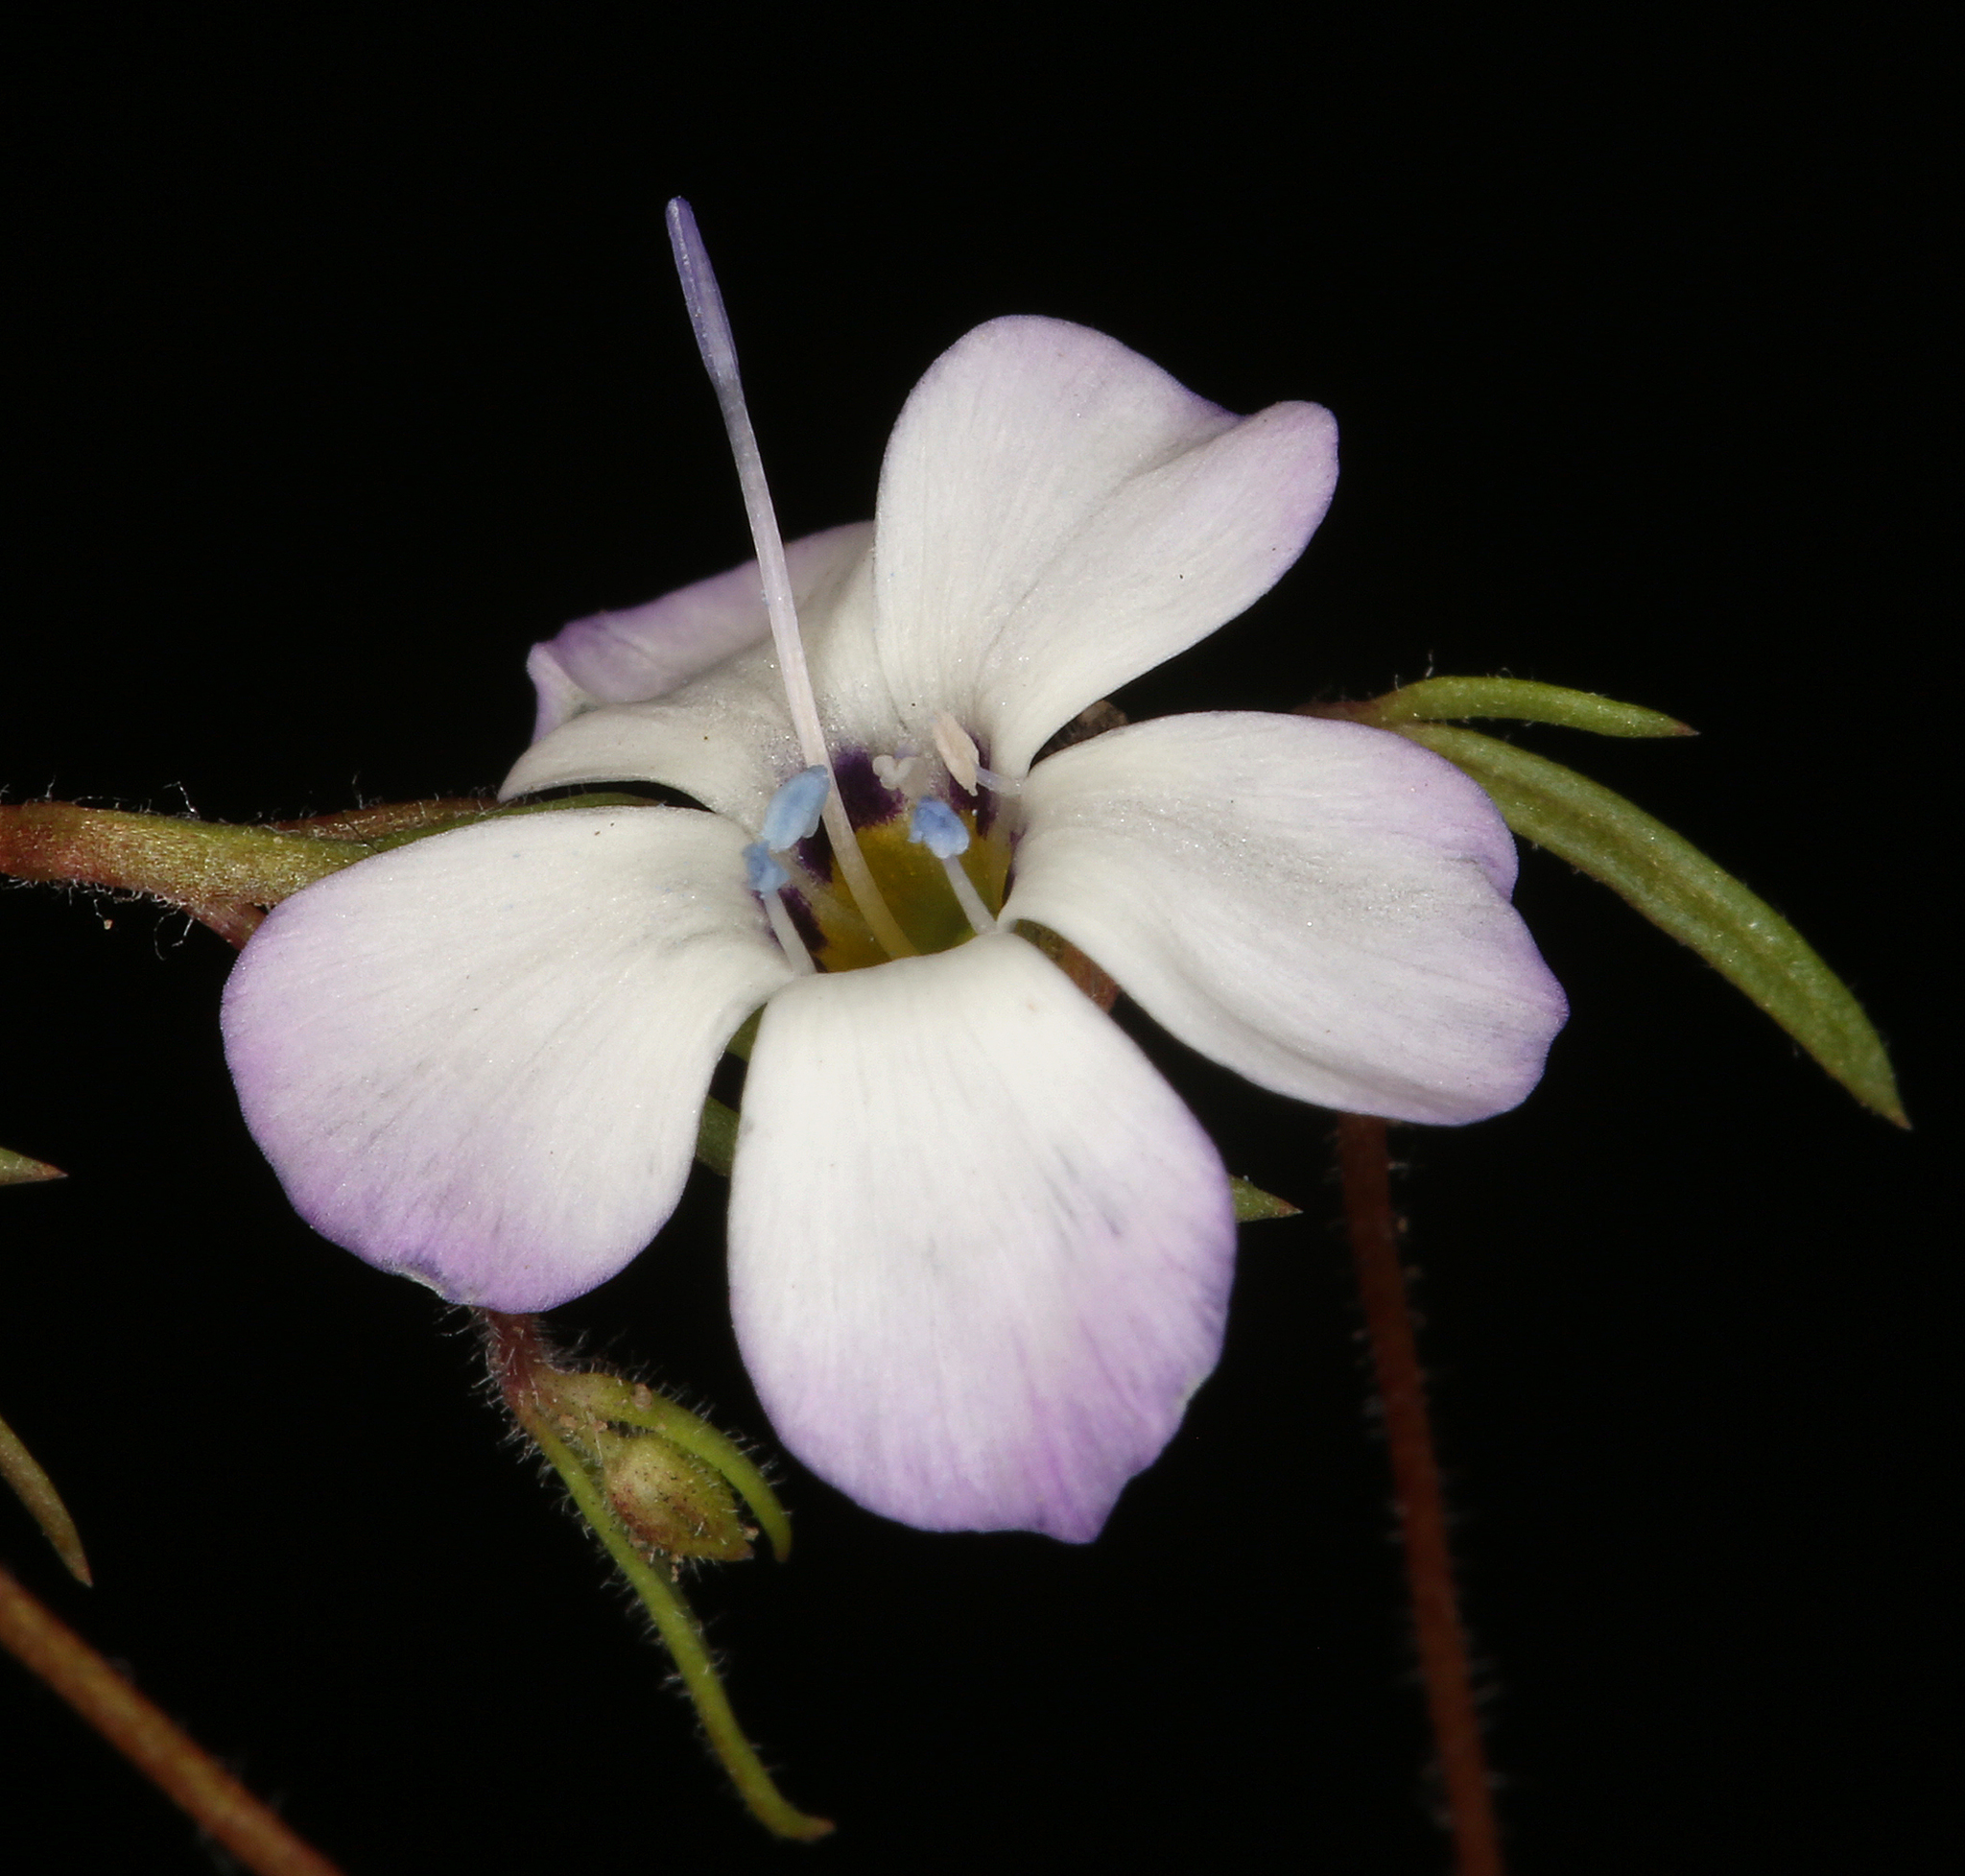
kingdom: Plantae
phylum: Tracheophyta
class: Magnoliopsida
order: Ericales
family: Polemoniaceae
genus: Gilia
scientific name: Gilia tricolor
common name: Bird's-eyes
